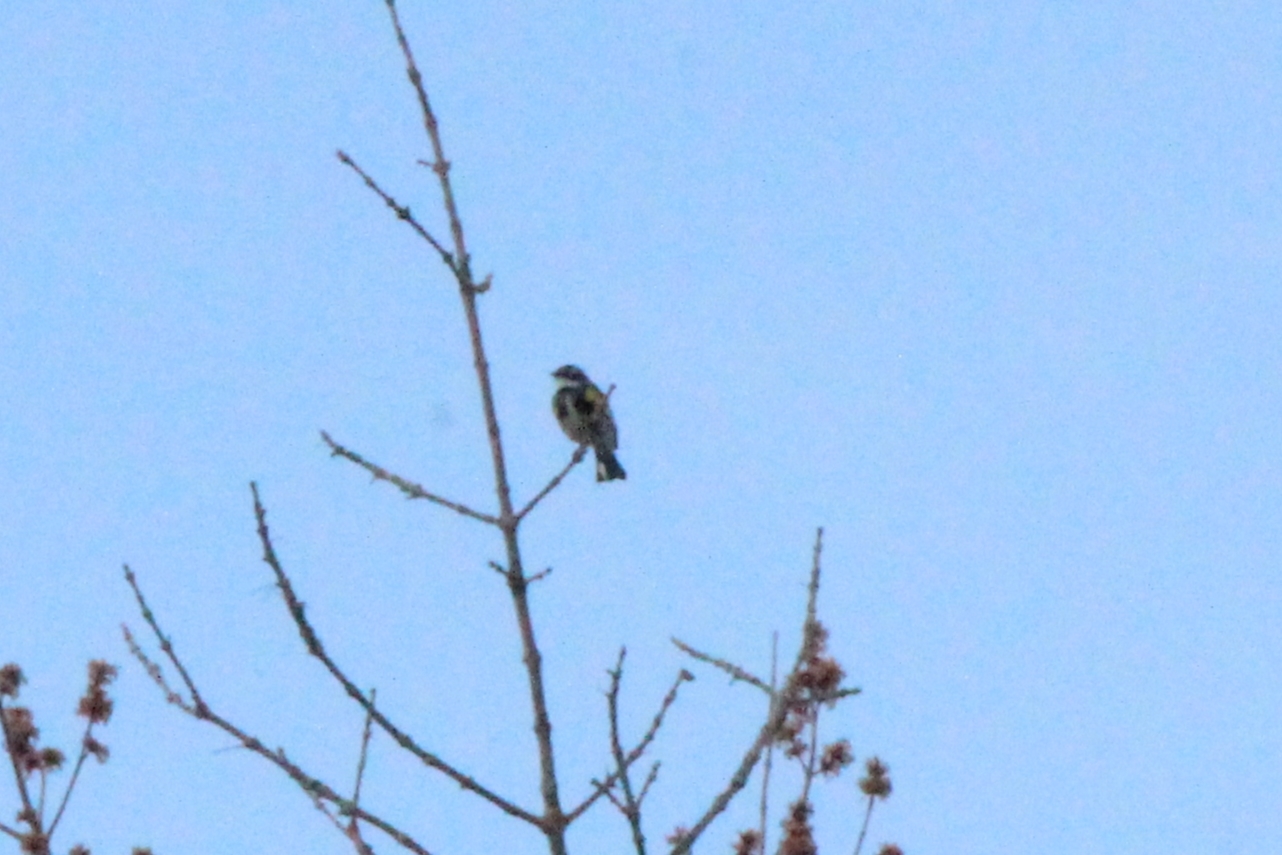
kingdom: Animalia
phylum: Chordata
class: Aves
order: Passeriformes
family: Parulidae
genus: Setophaga
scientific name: Setophaga coronata
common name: Myrtle warbler
